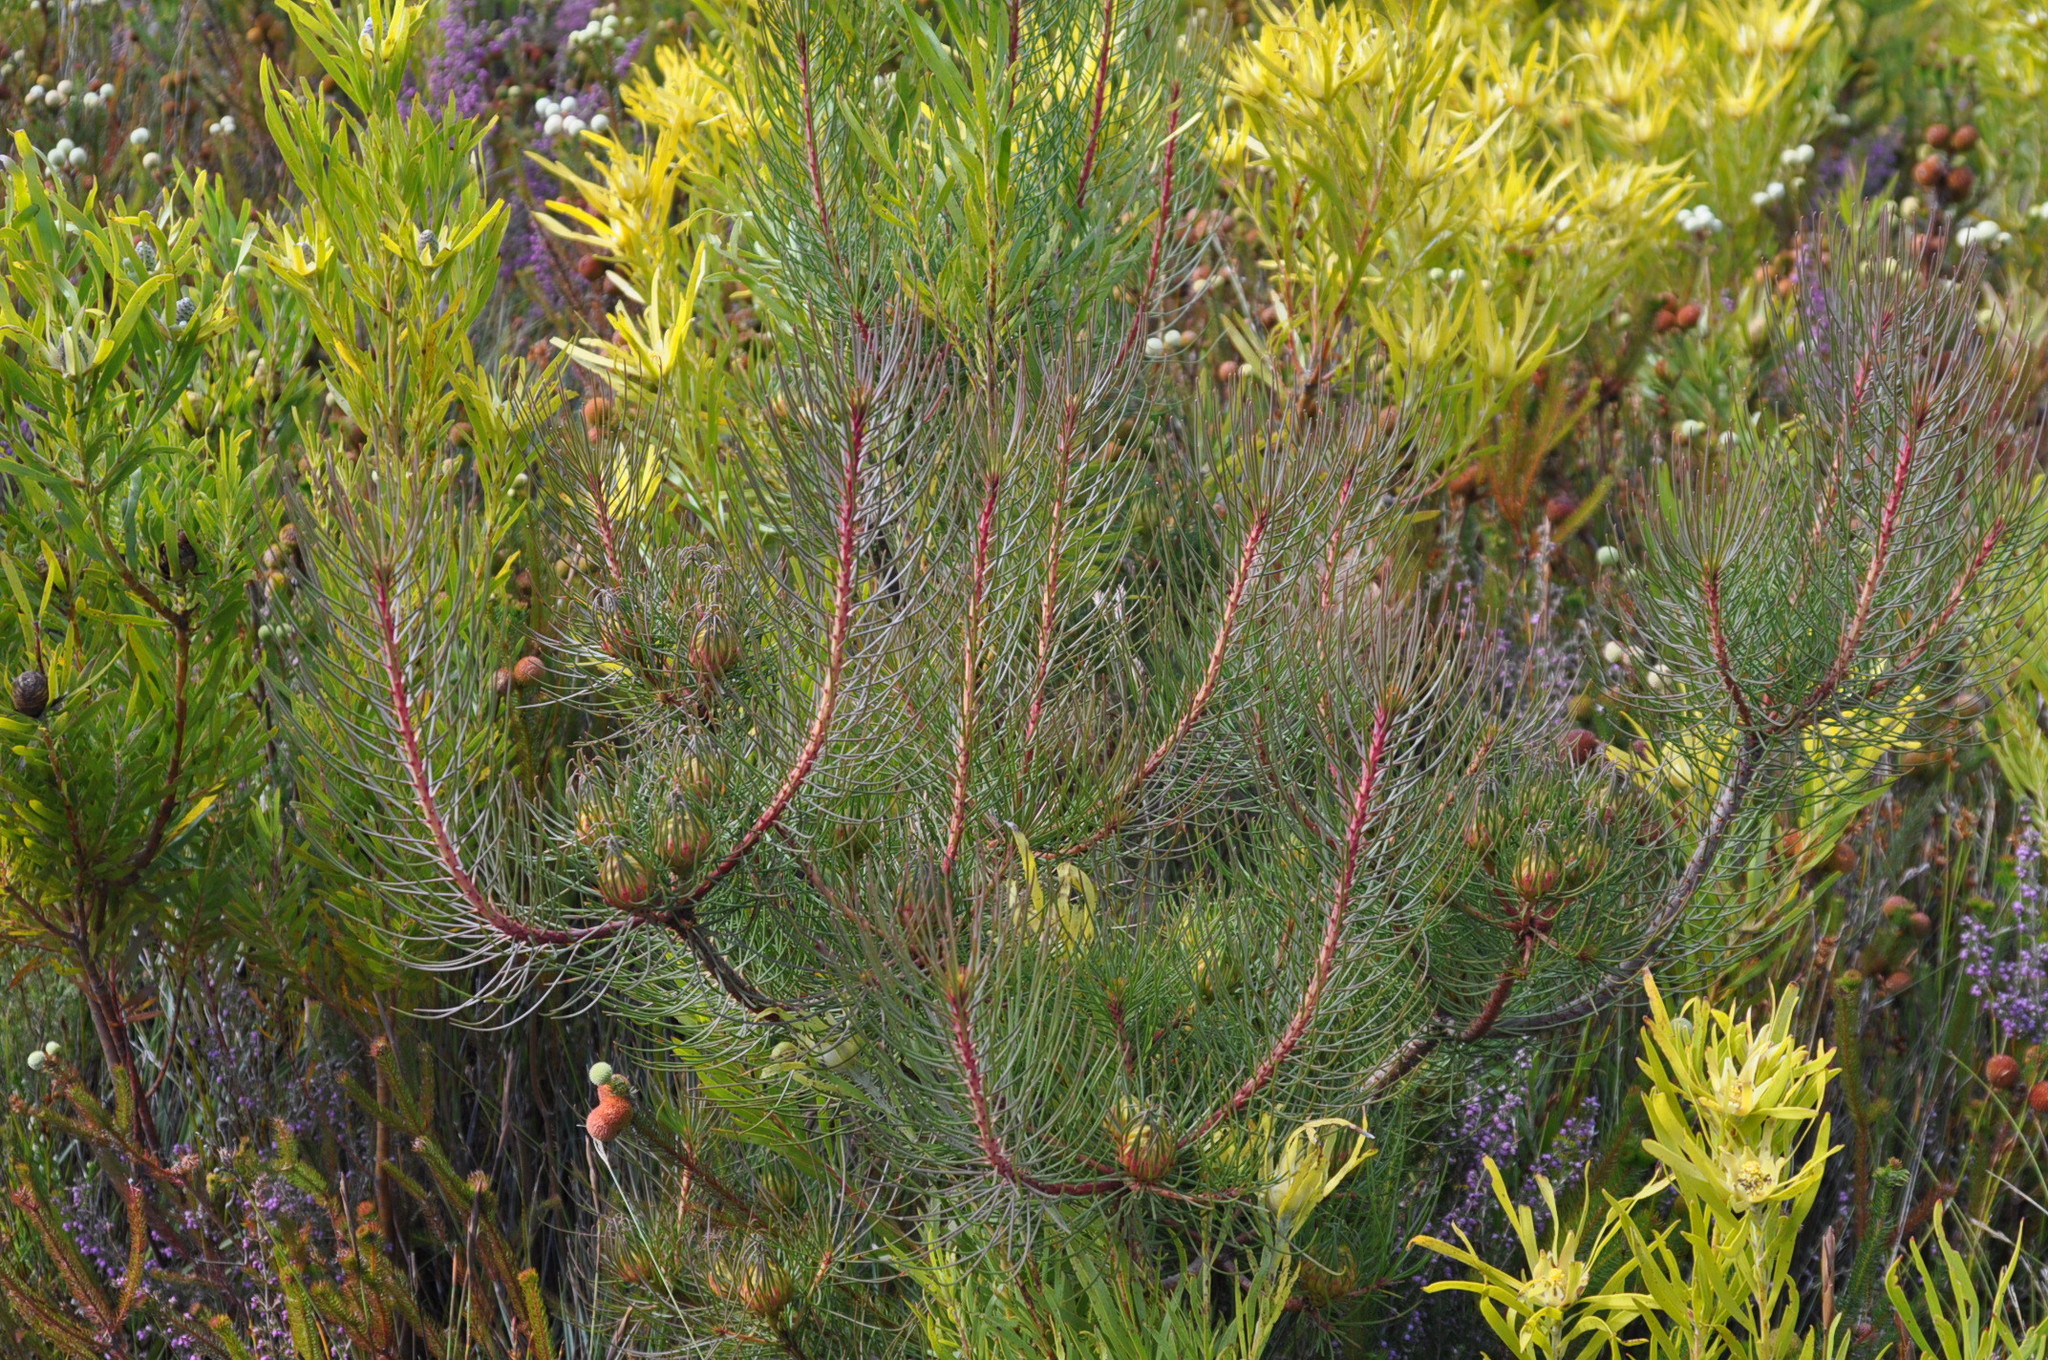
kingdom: Plantae
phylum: Tracheophyta
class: Magnoliopsida
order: Proteales
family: Proteaceae
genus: Aulax
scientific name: Aulax cancellata
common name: Channel-leaf featherbush
